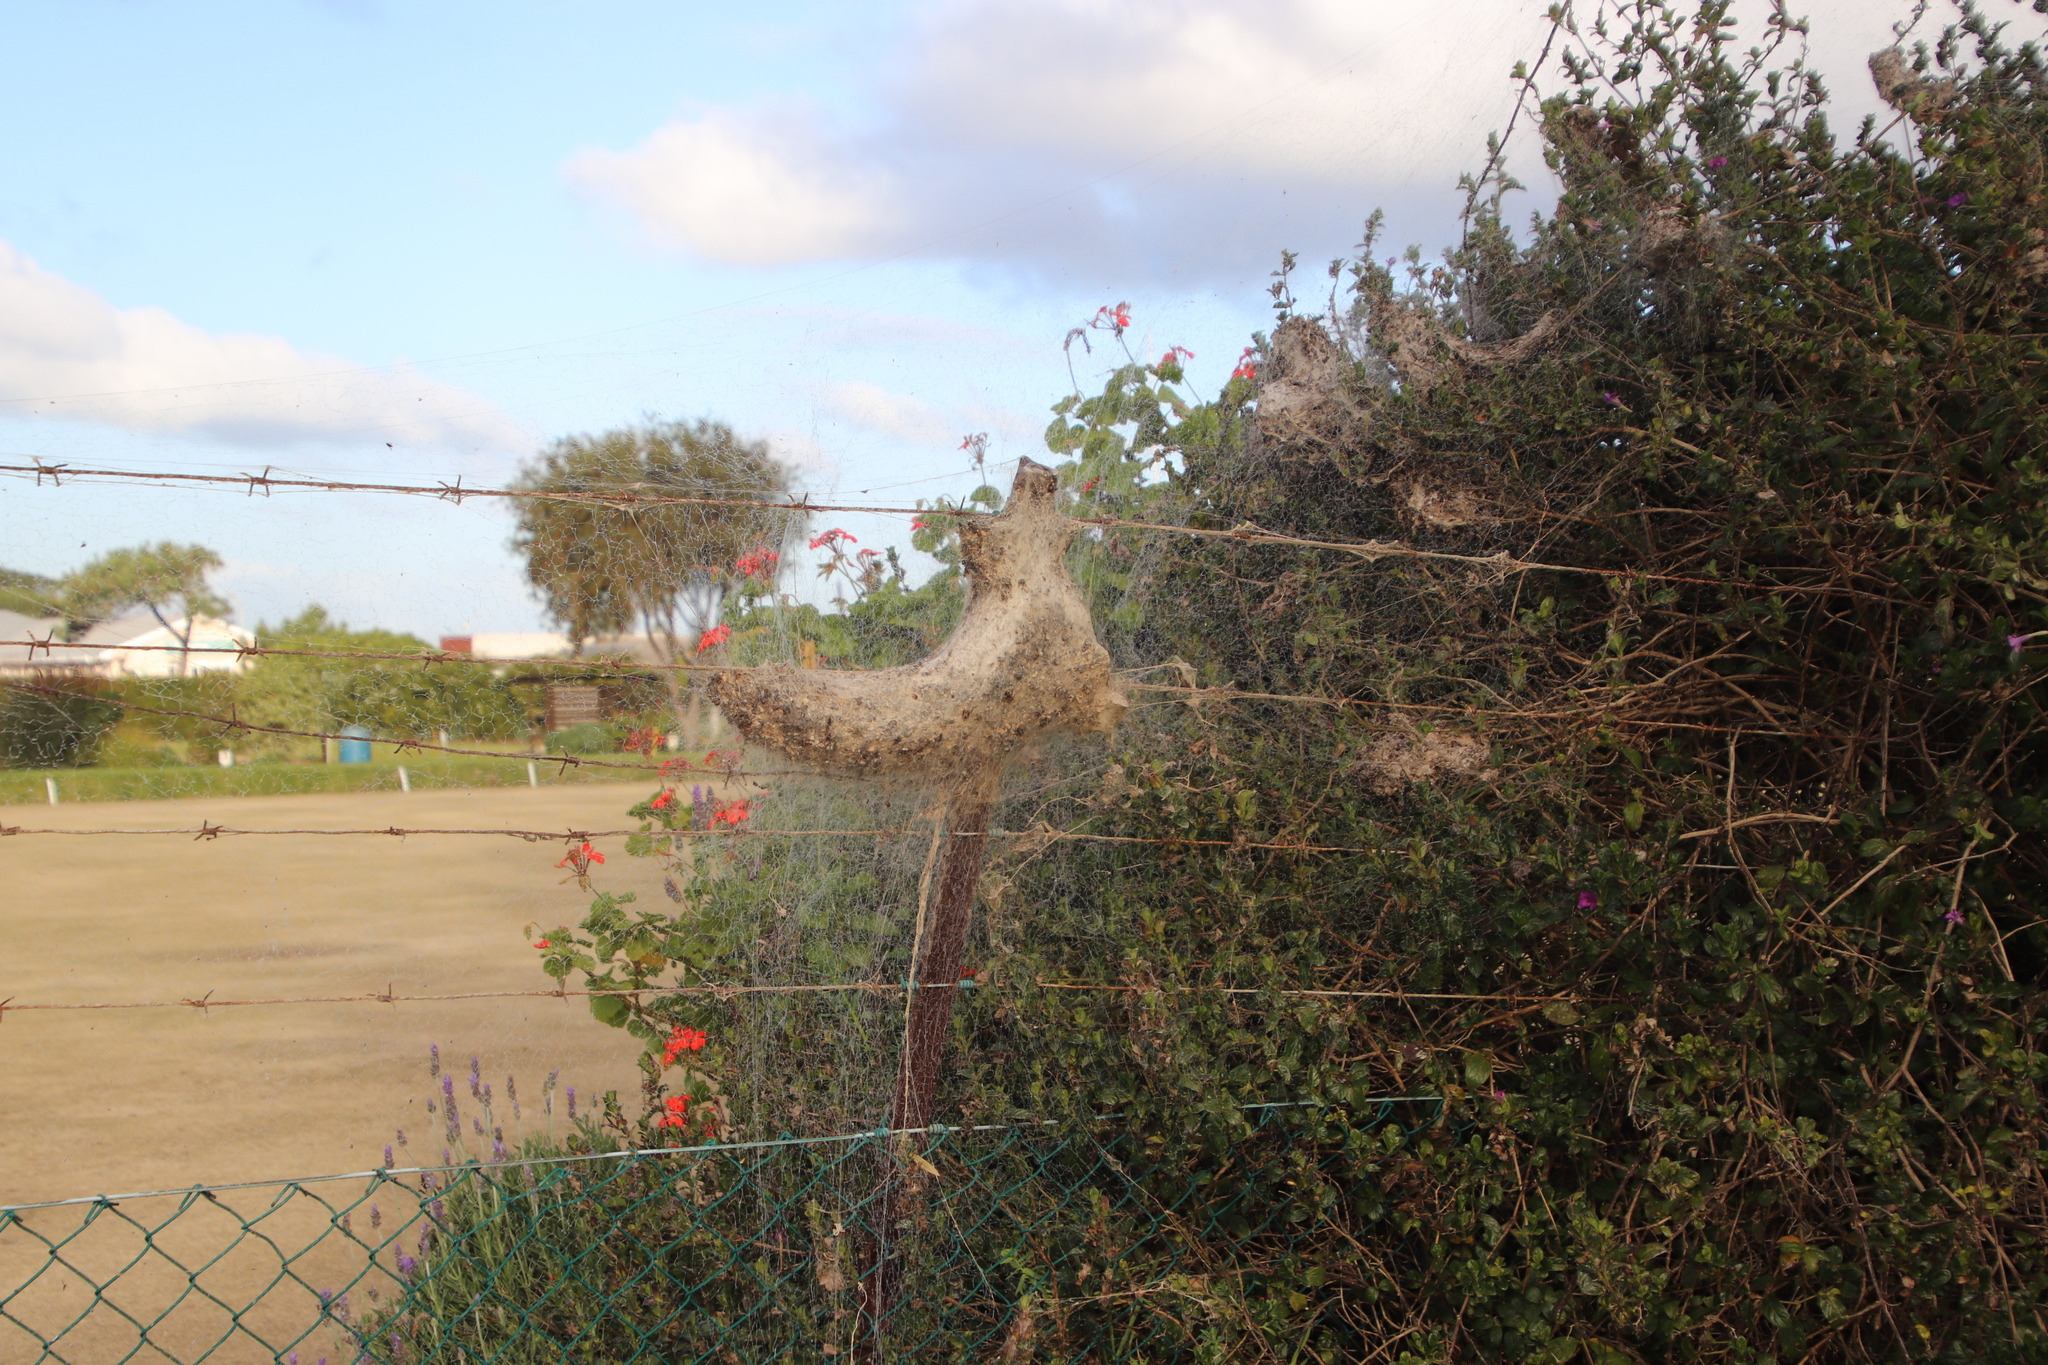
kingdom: Animalia
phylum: Arthropoda
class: Arachnida
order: Araneae
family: Eresidae
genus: Stegodyphus
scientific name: Stegodyphus dumicola
